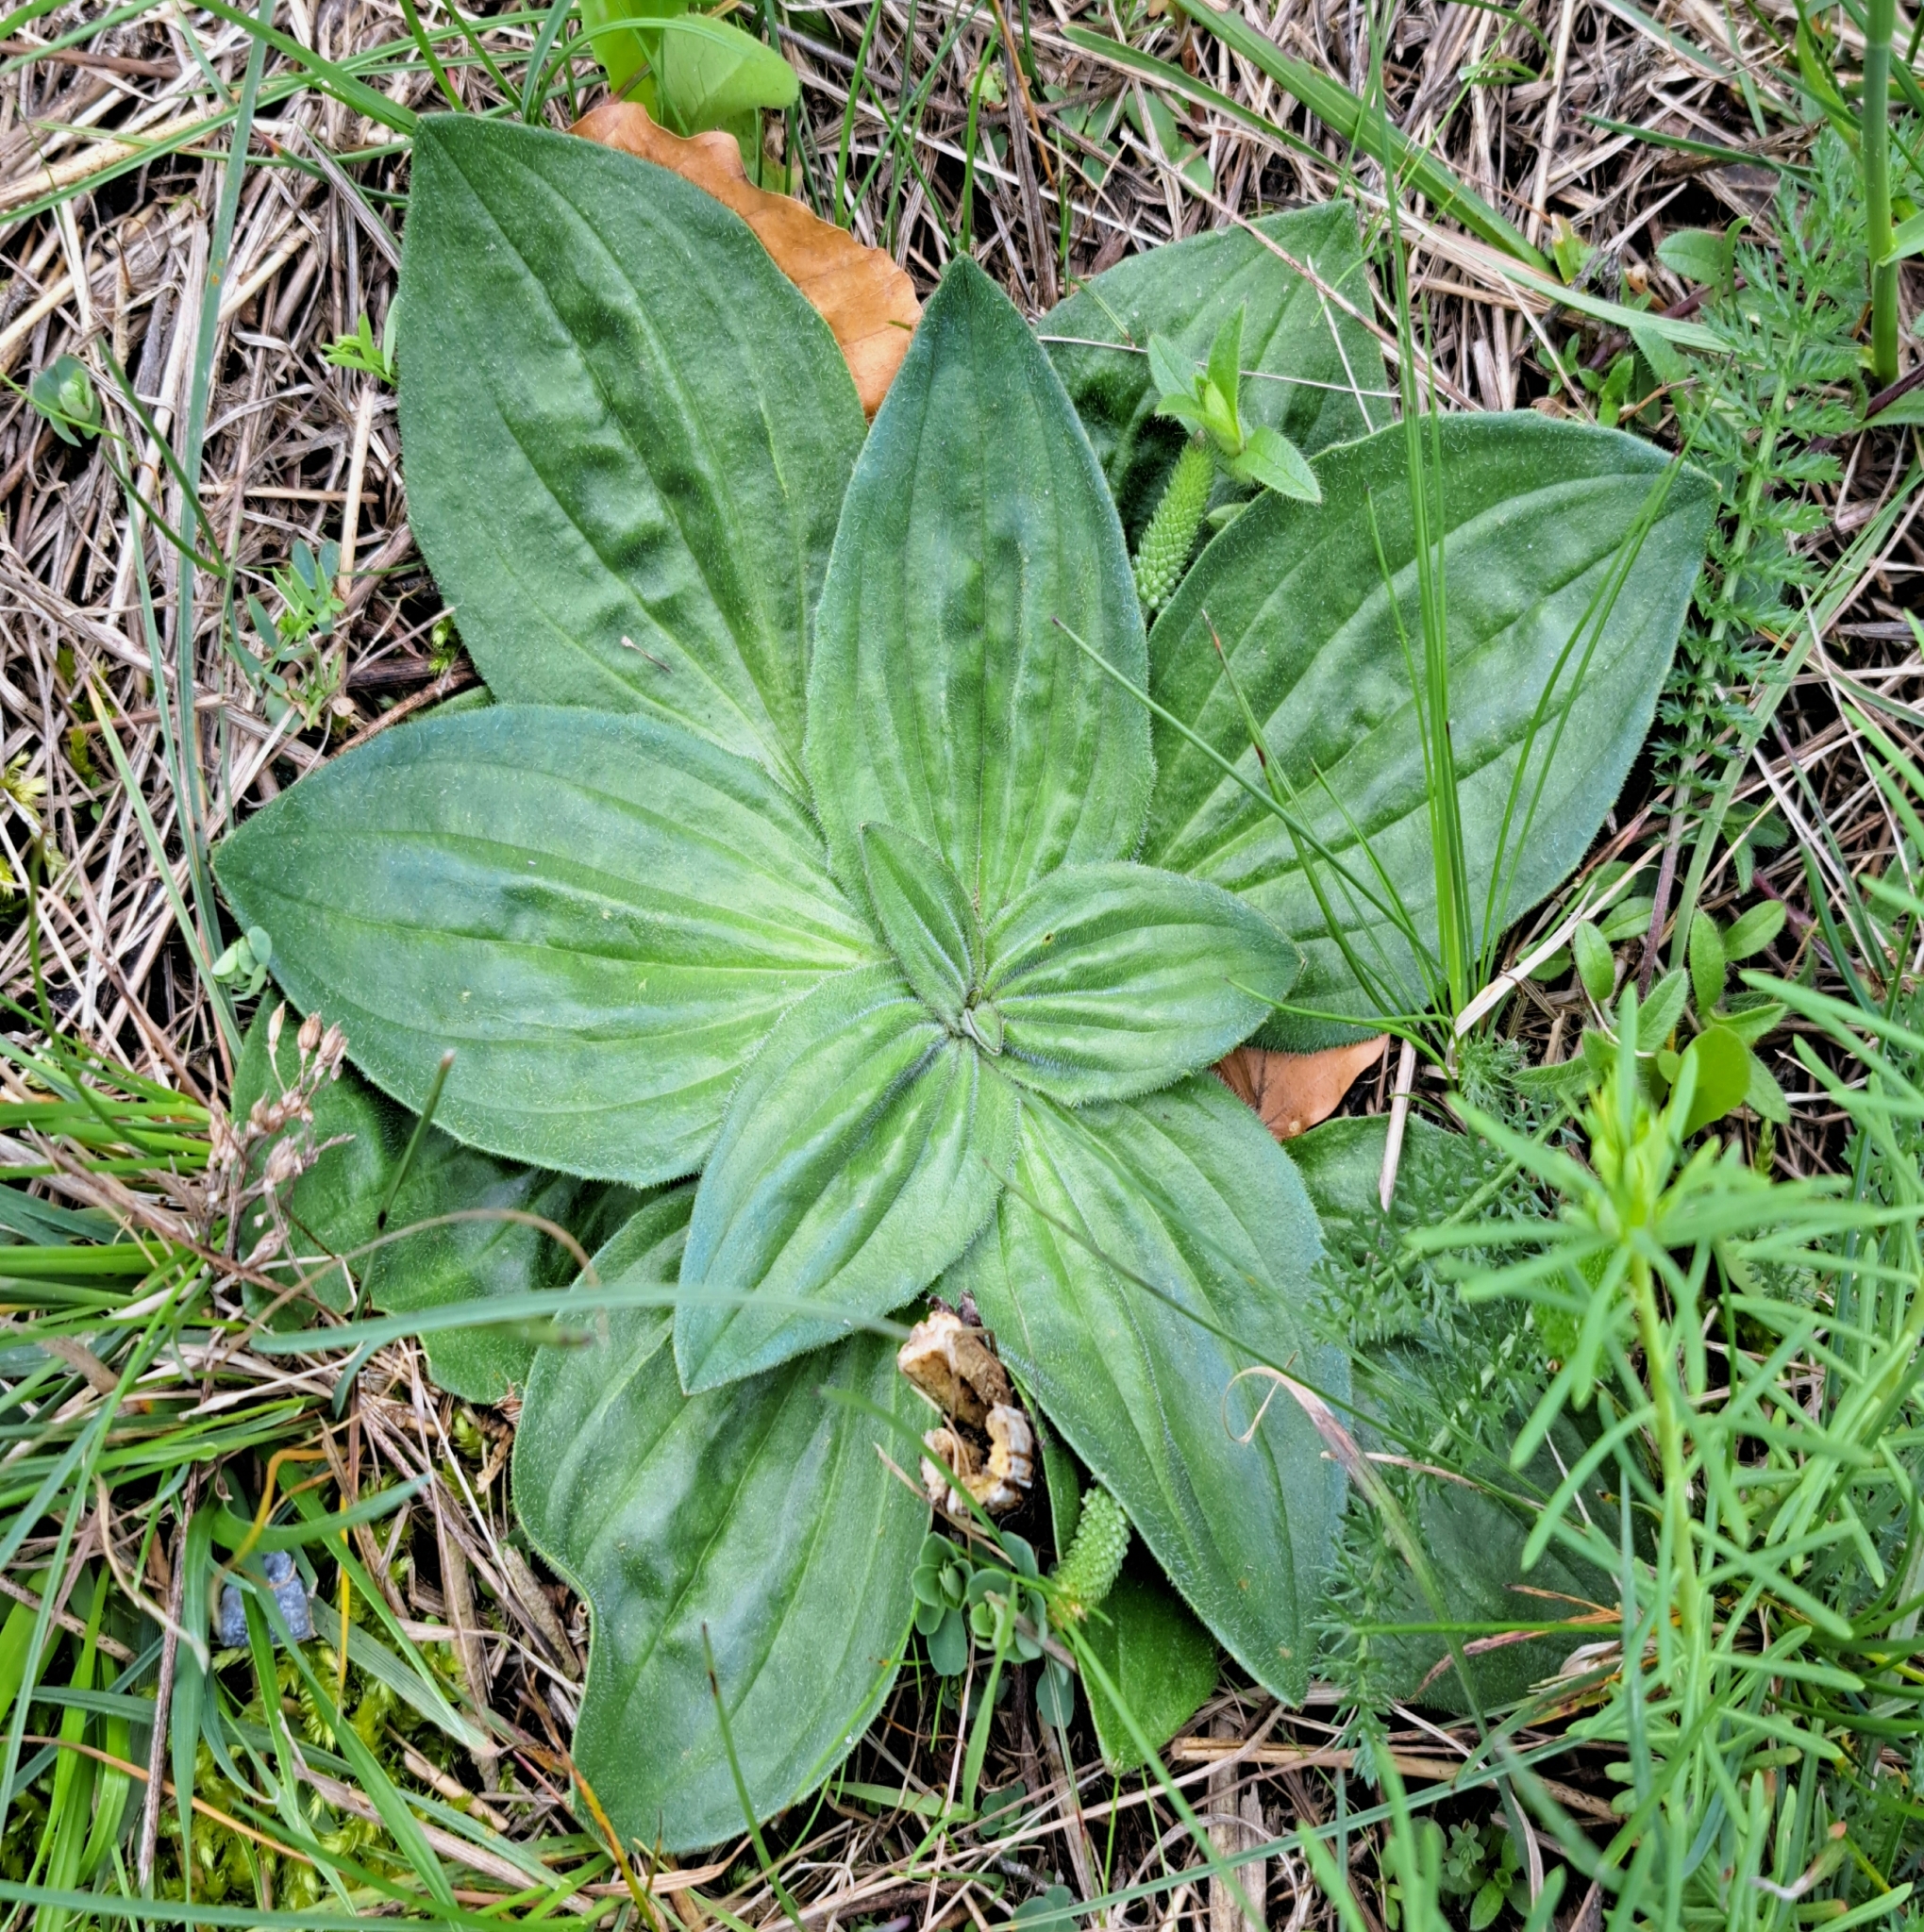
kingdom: Plantae
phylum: Tracheophyta
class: Magnoliopsida
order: Lamiales
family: Plantaginaceae
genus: Plantago
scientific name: Plantago media
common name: Hoary plantain
